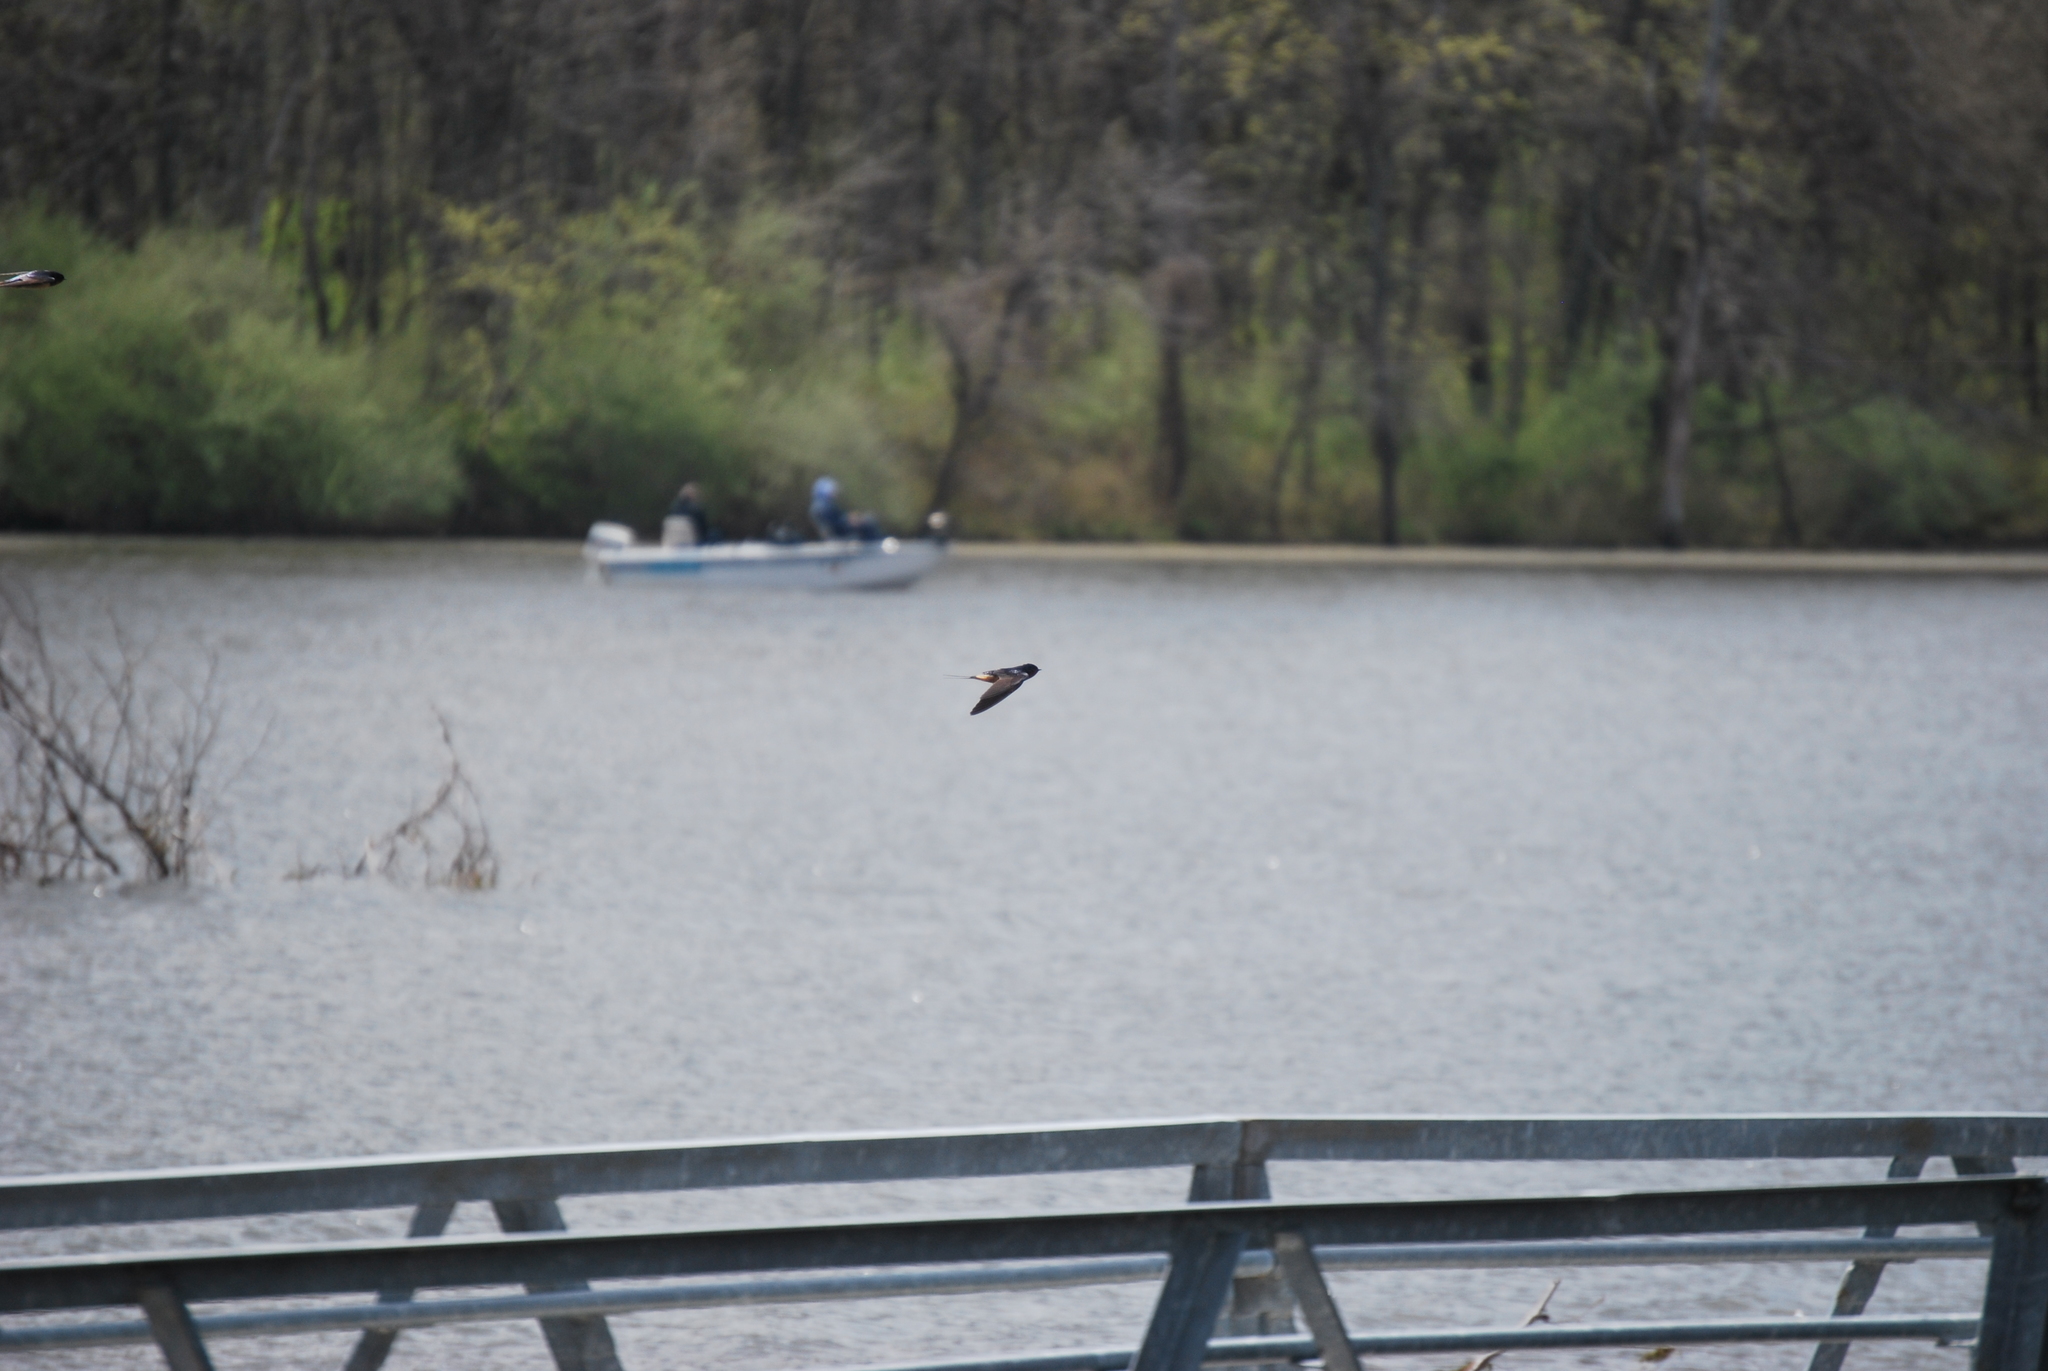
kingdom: Animalia
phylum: Chordata
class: Aves
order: Passeriformes
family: Hirundinidae
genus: Hirundo
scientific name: Hirundo rustica
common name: Barn swallow
